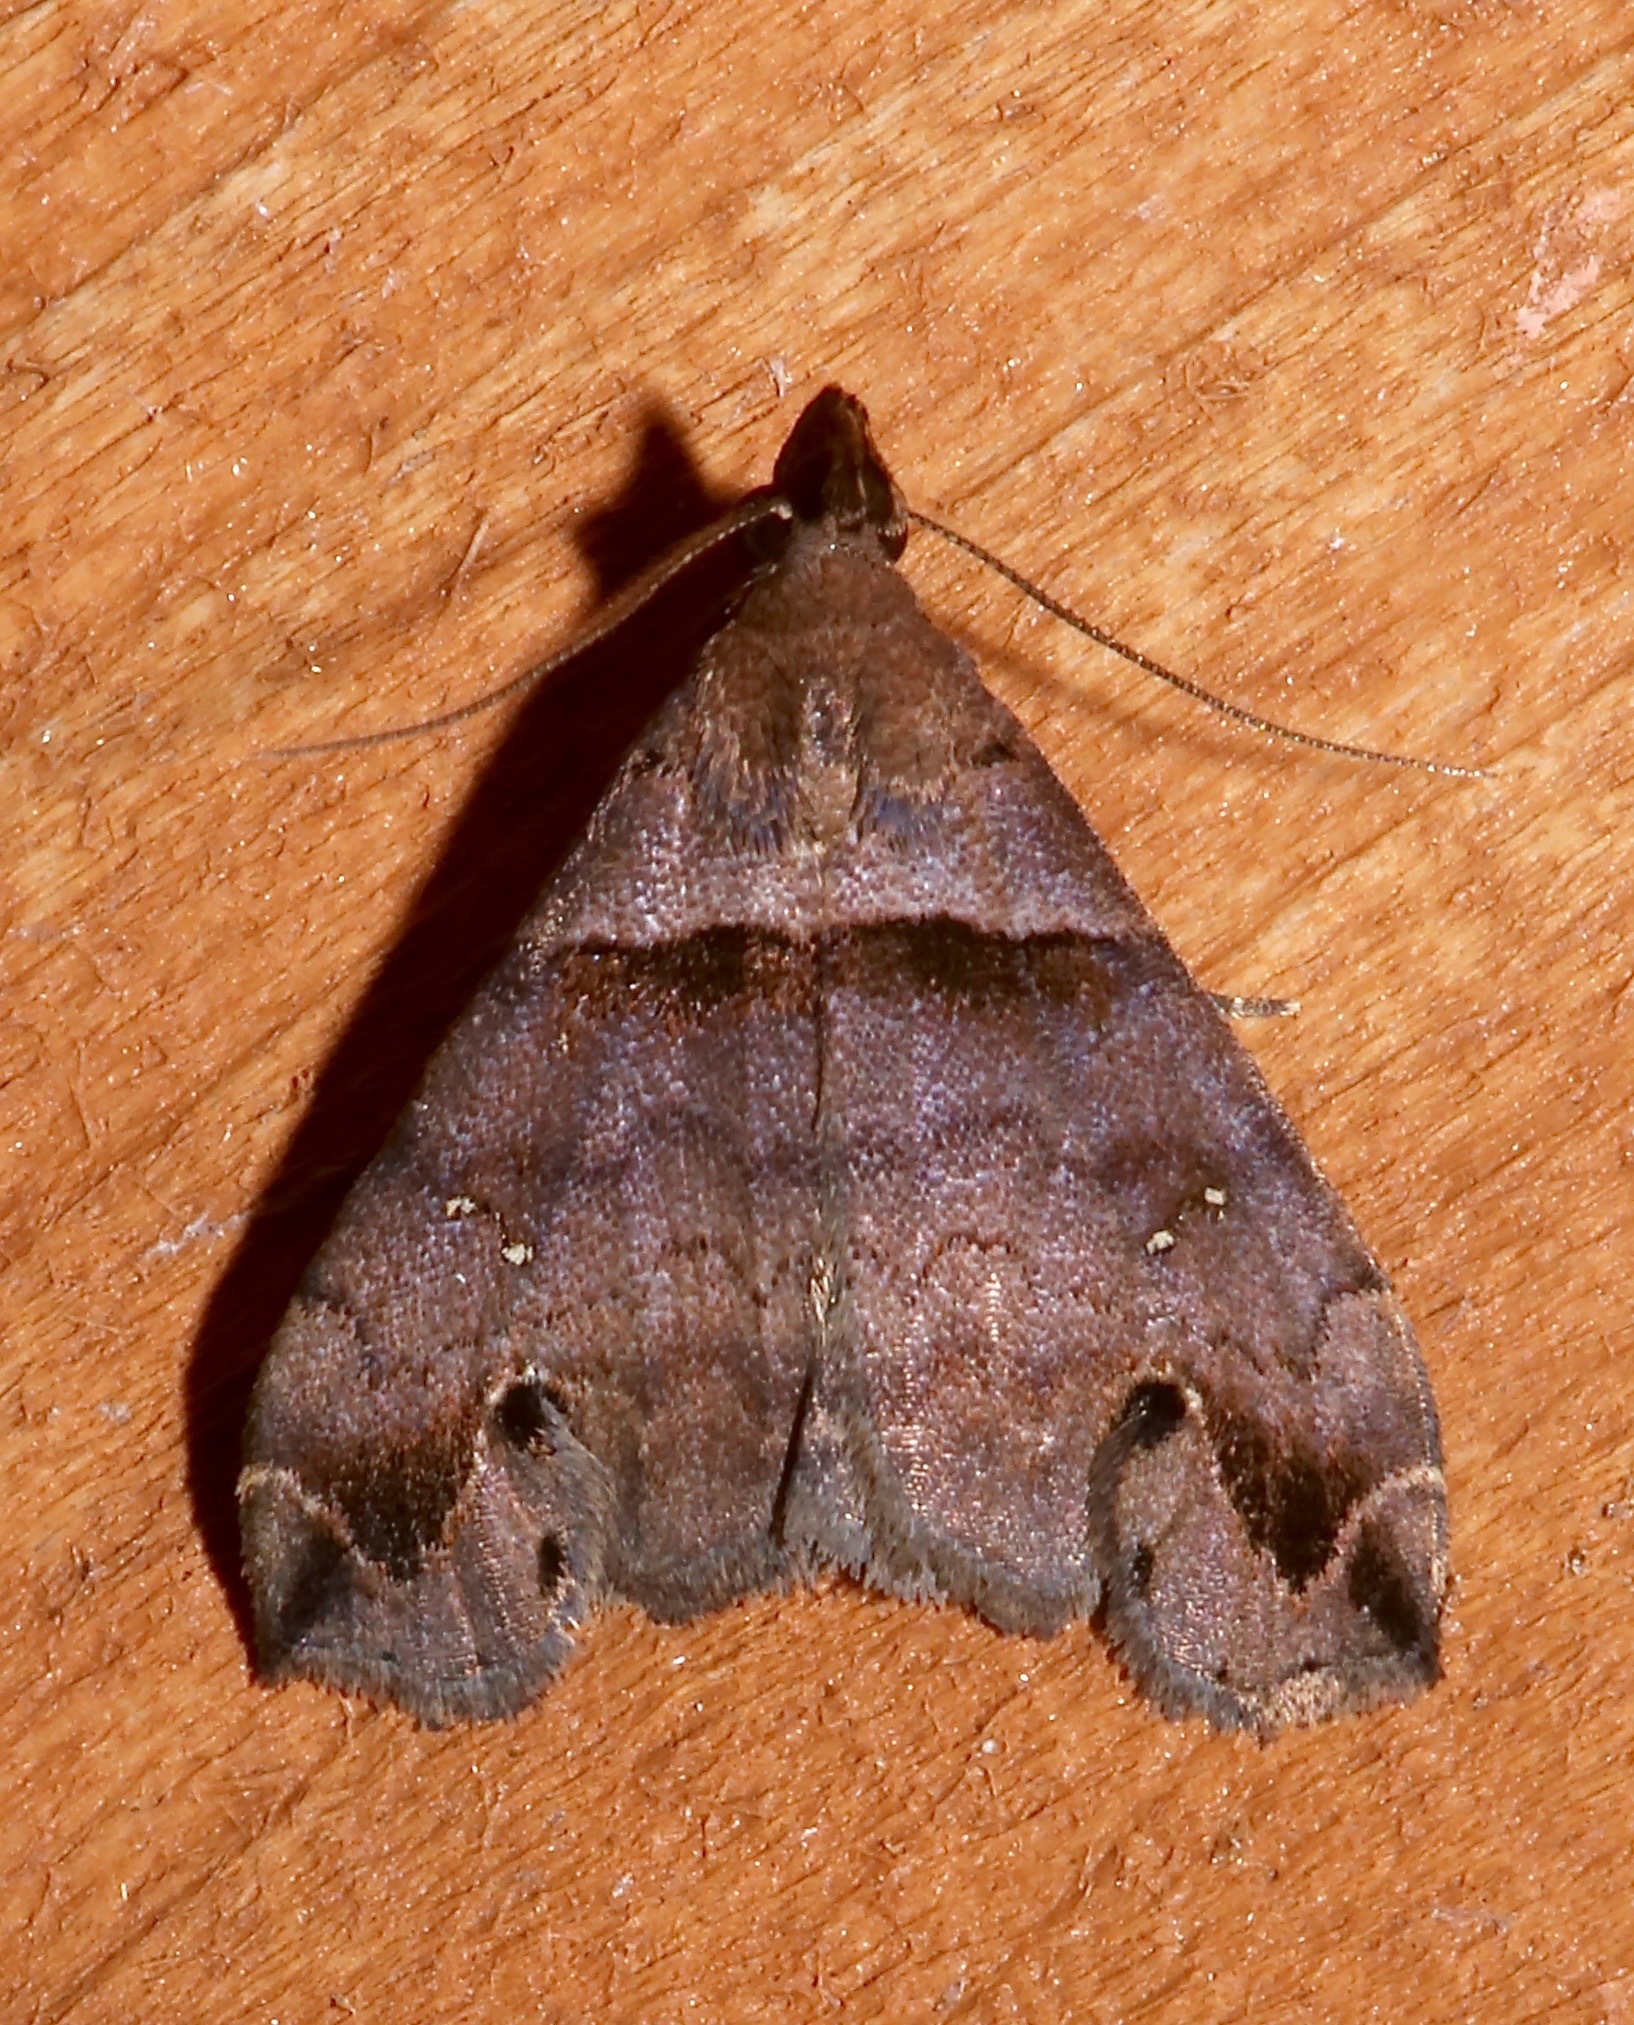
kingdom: Animalia
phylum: Arthropoda
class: Insecta
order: Lepidoptera
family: Erebidae
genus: Lascoria
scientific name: Lascoria ambigualis
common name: Ambiguous moth
